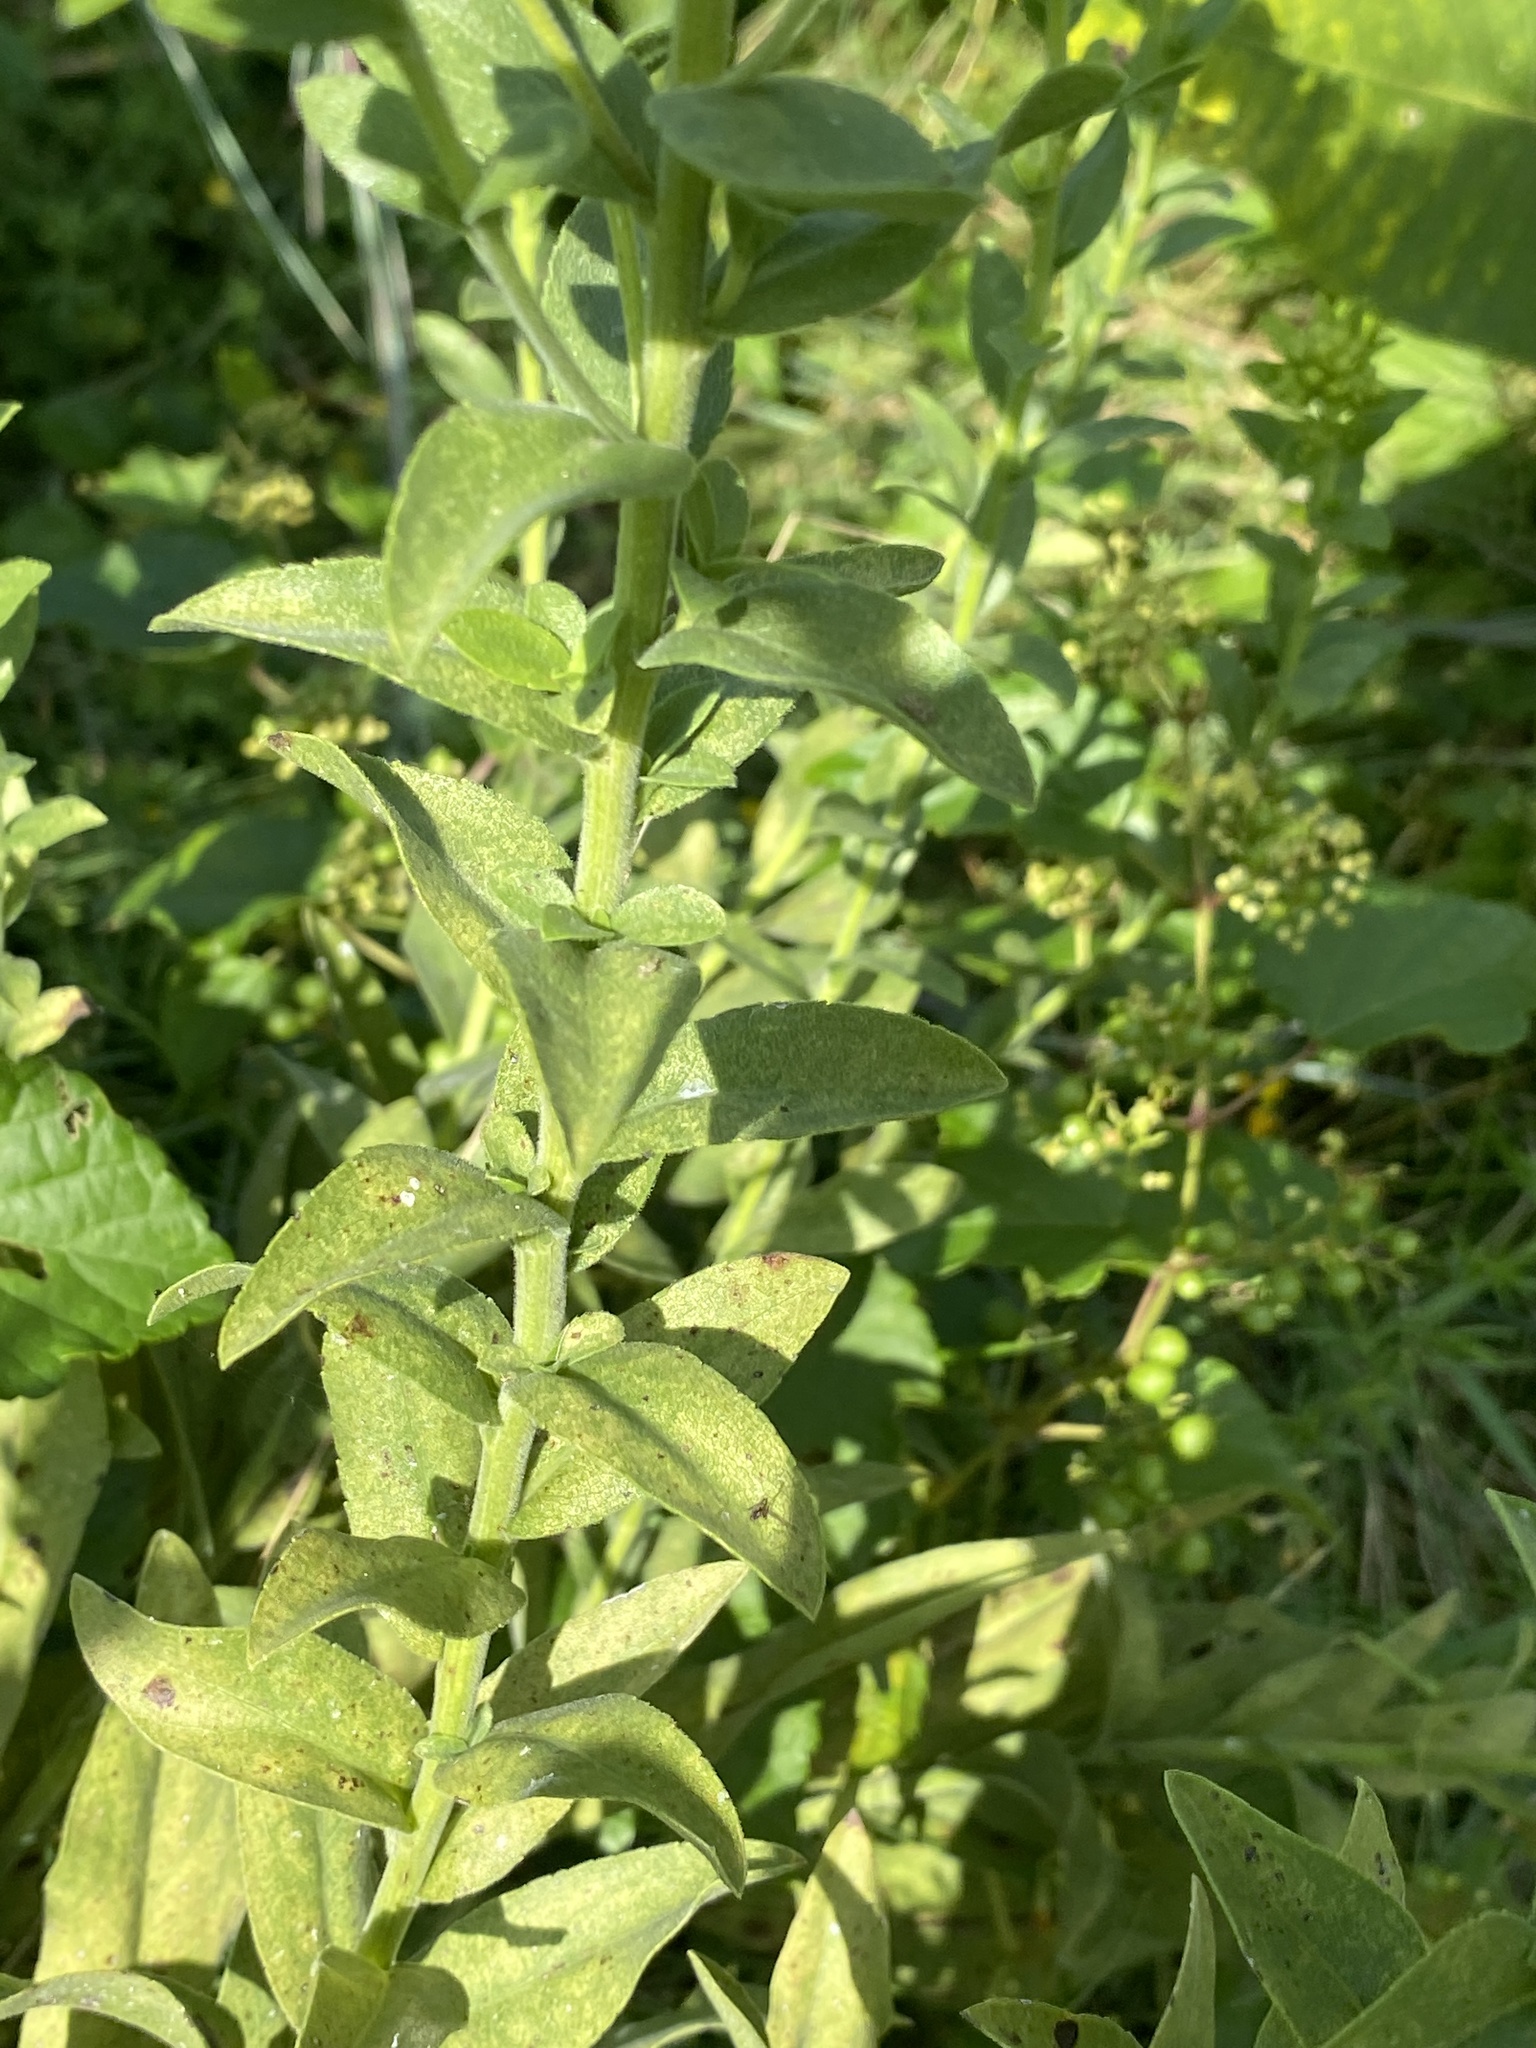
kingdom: Plantae
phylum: Tracheophyta
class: Magnoliopsida
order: Asterales
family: Asteraceae
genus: Solidago
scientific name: Solidago rigida
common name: Rigid goldenrod
